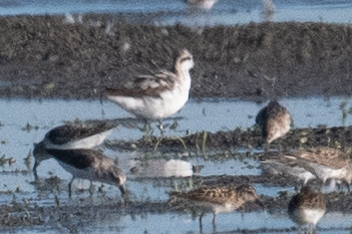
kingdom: Animalia
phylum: Chordata
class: Aves
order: Charadriiformes
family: Scolopacidae
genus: Phalaropus
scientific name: Phalaropus tricolor
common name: Wilson's phalarope
